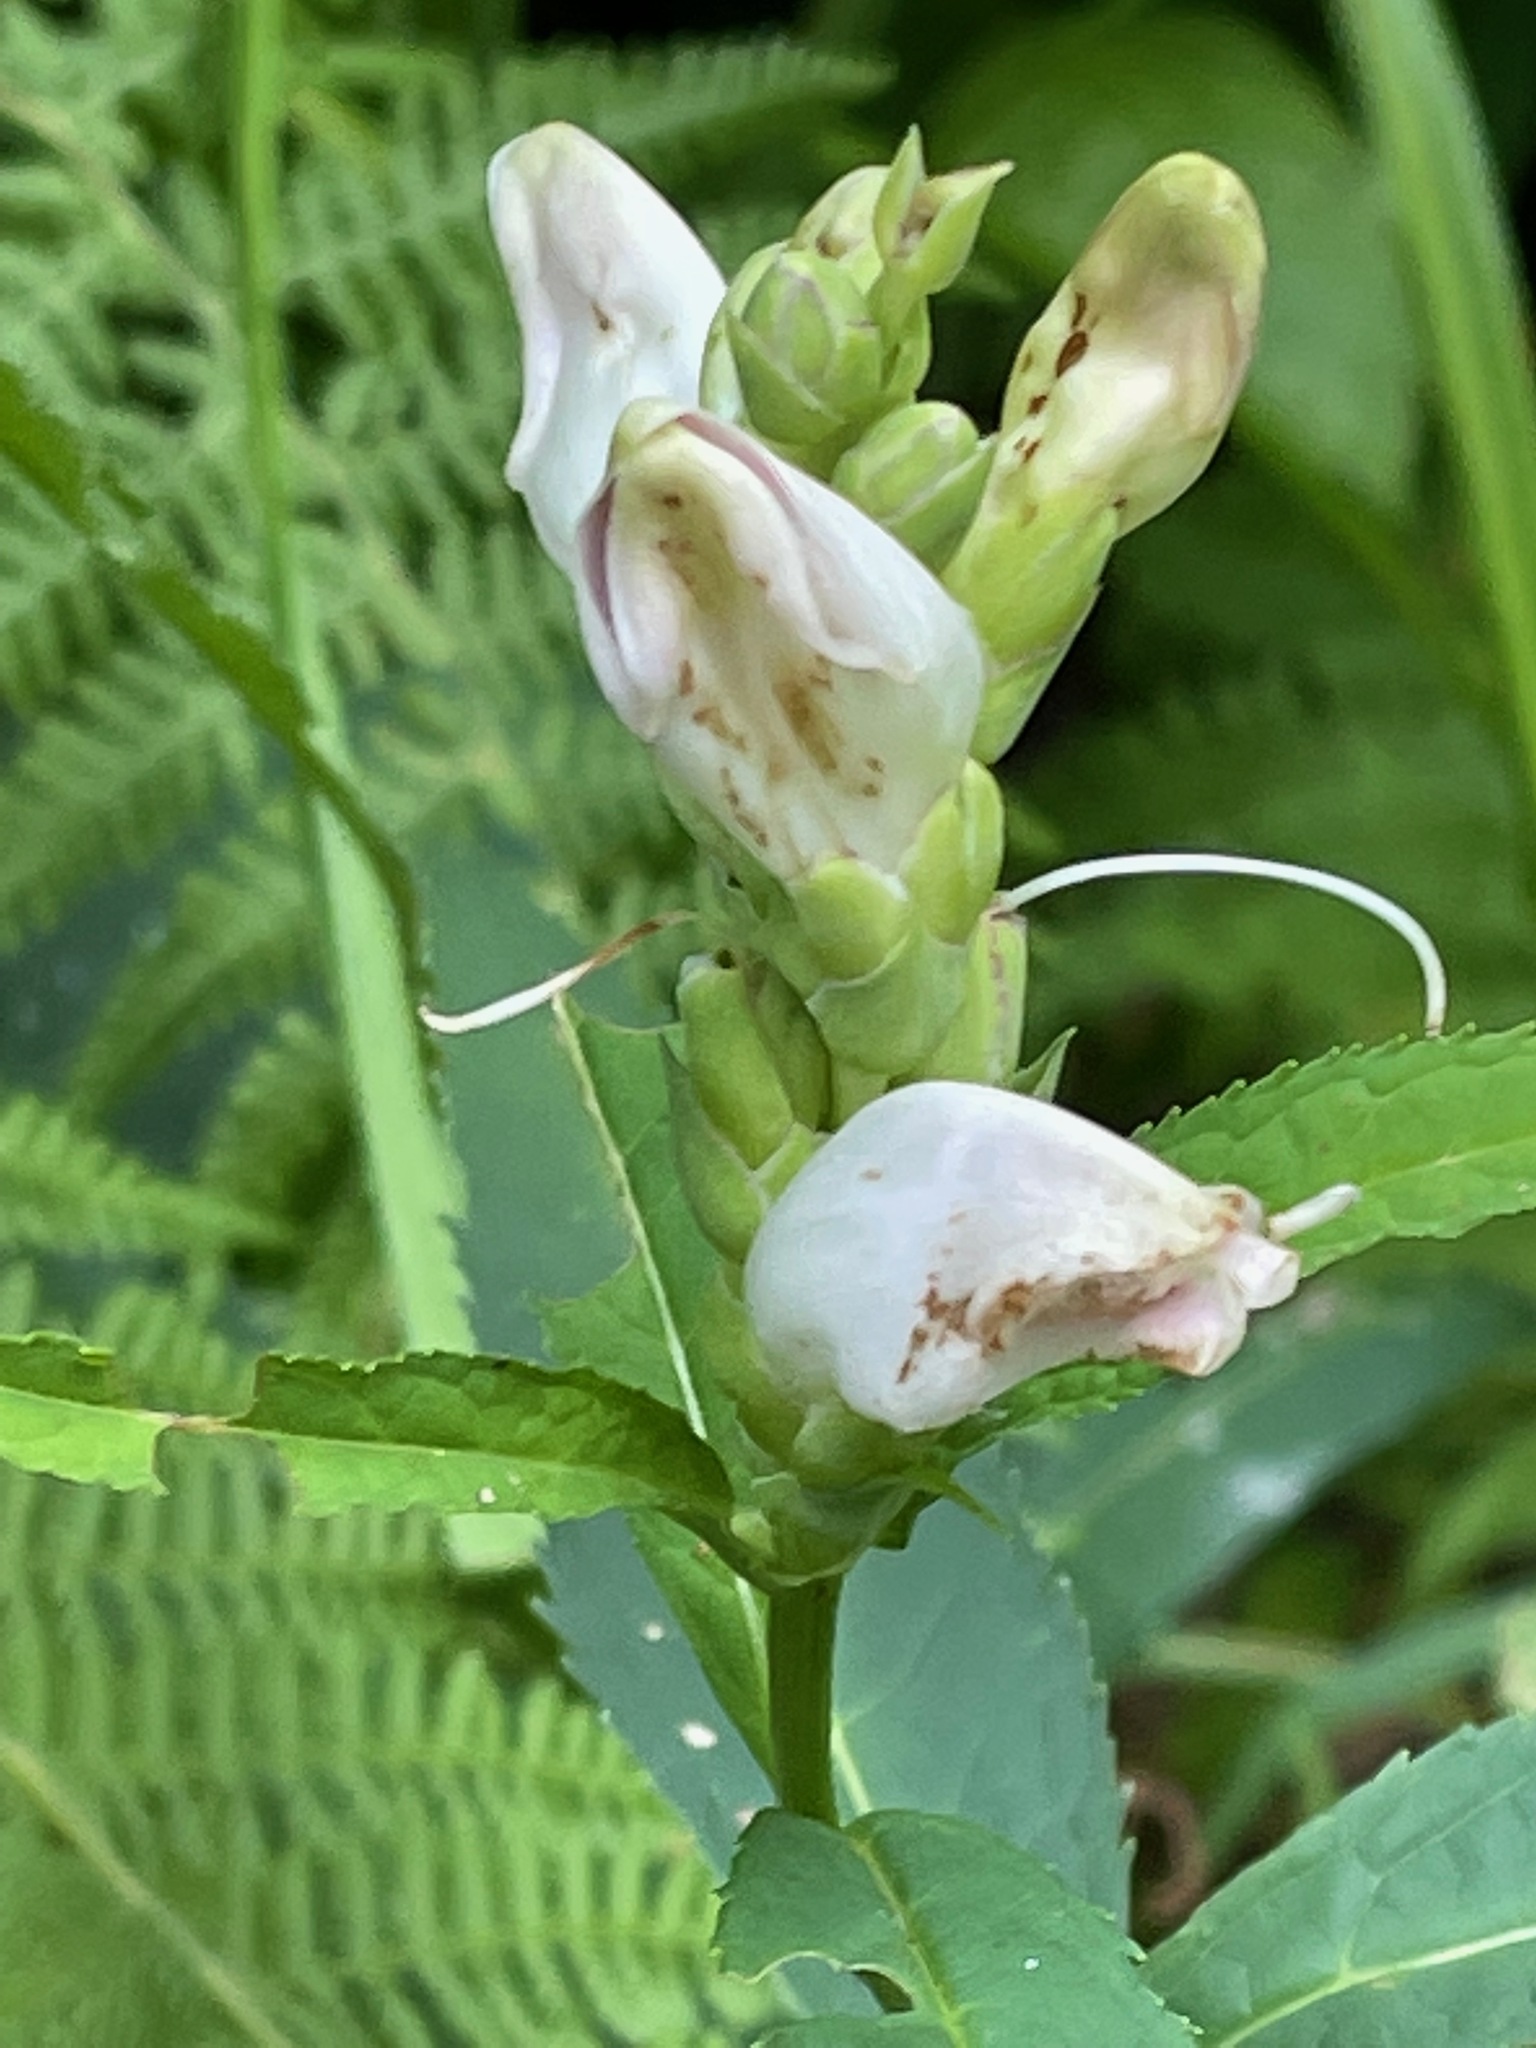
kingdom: Plantae
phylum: Tracheophyta
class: Magnoliopsida
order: Lamiales
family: Plantaginaceae
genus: Chelone
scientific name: Chelone glabra
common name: Snakehead
